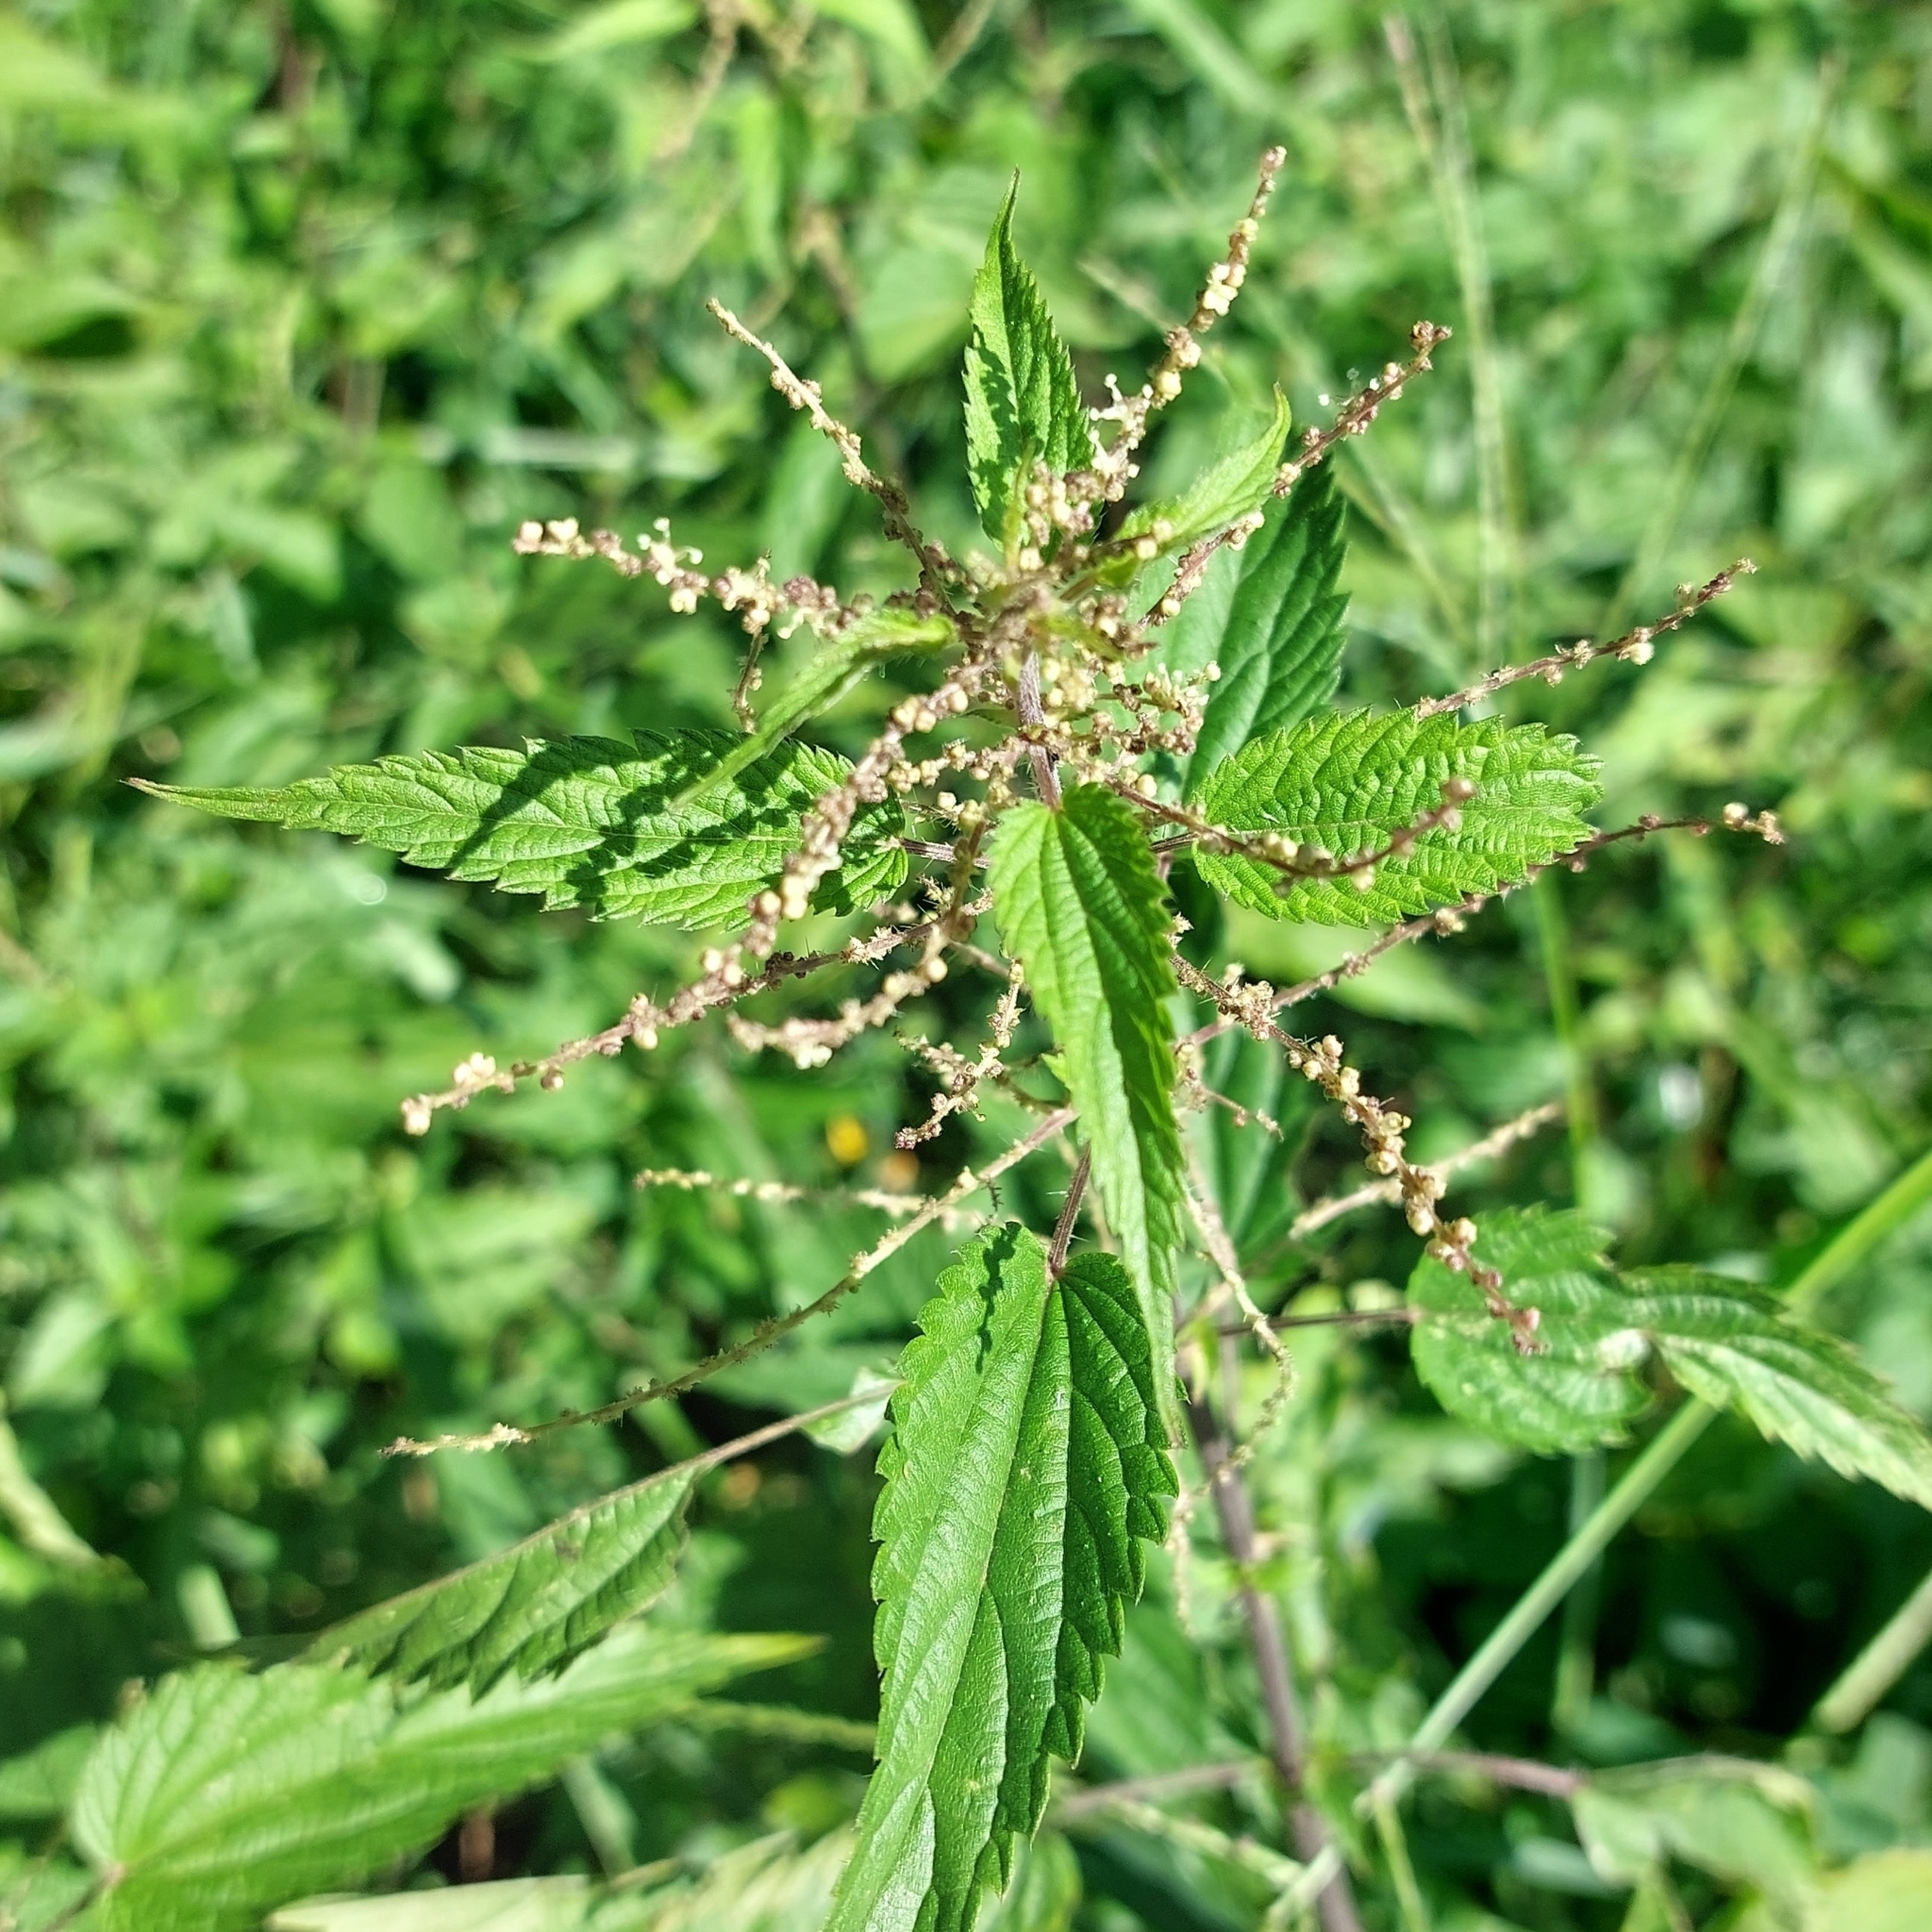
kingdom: Plantae
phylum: Tracheophyta
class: Magnoliopsida
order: Rosales
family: Urticaceae
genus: Urtica
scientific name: Urtica dioica
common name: Common nettle
